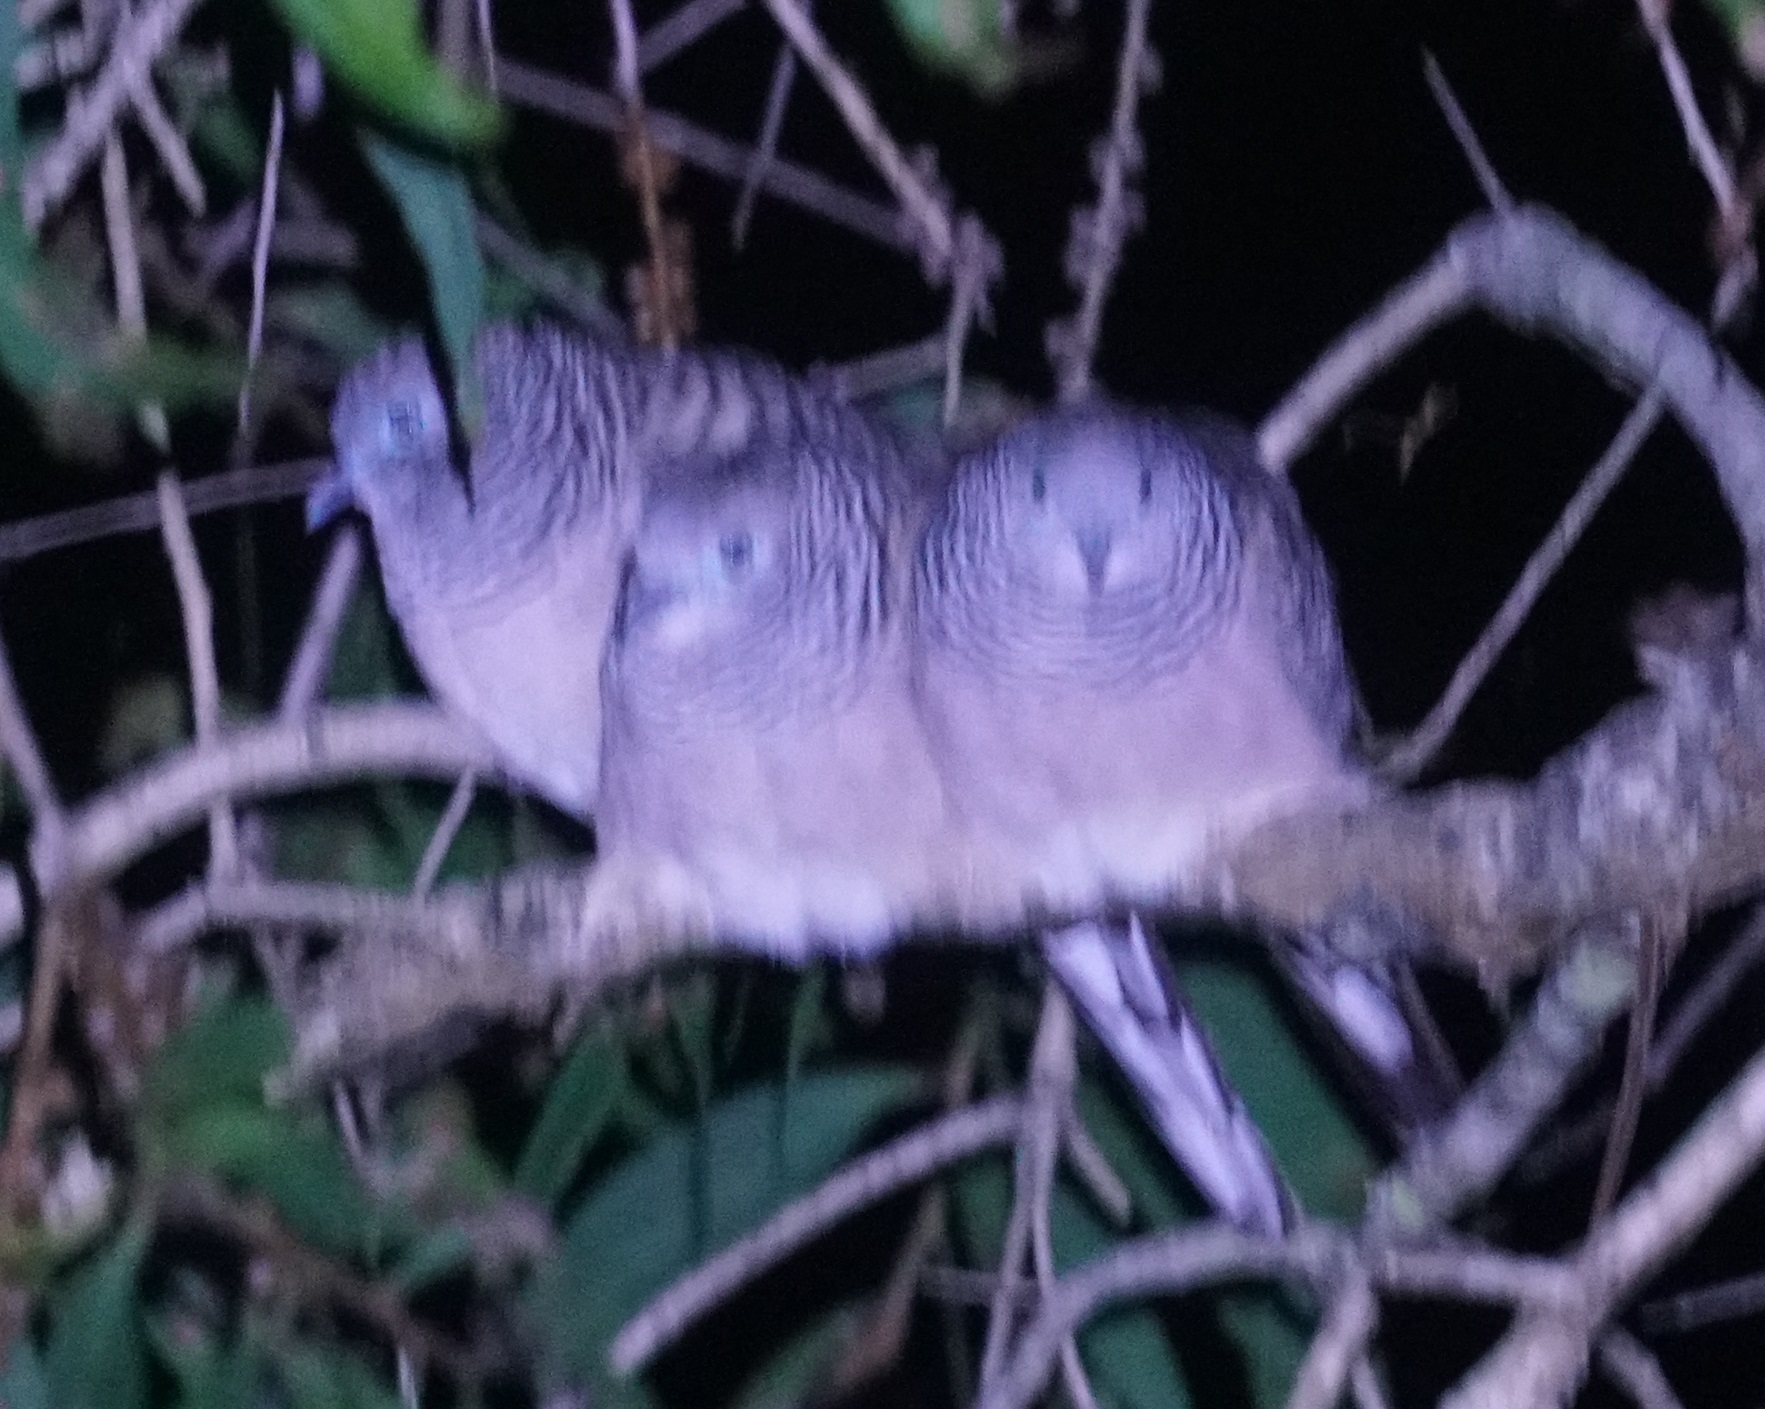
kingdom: Animalia
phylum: Chordata
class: Aves
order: Columbiformes
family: Columbidae
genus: Geopelia
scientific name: Geopelia placida
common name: Peaceful dove
